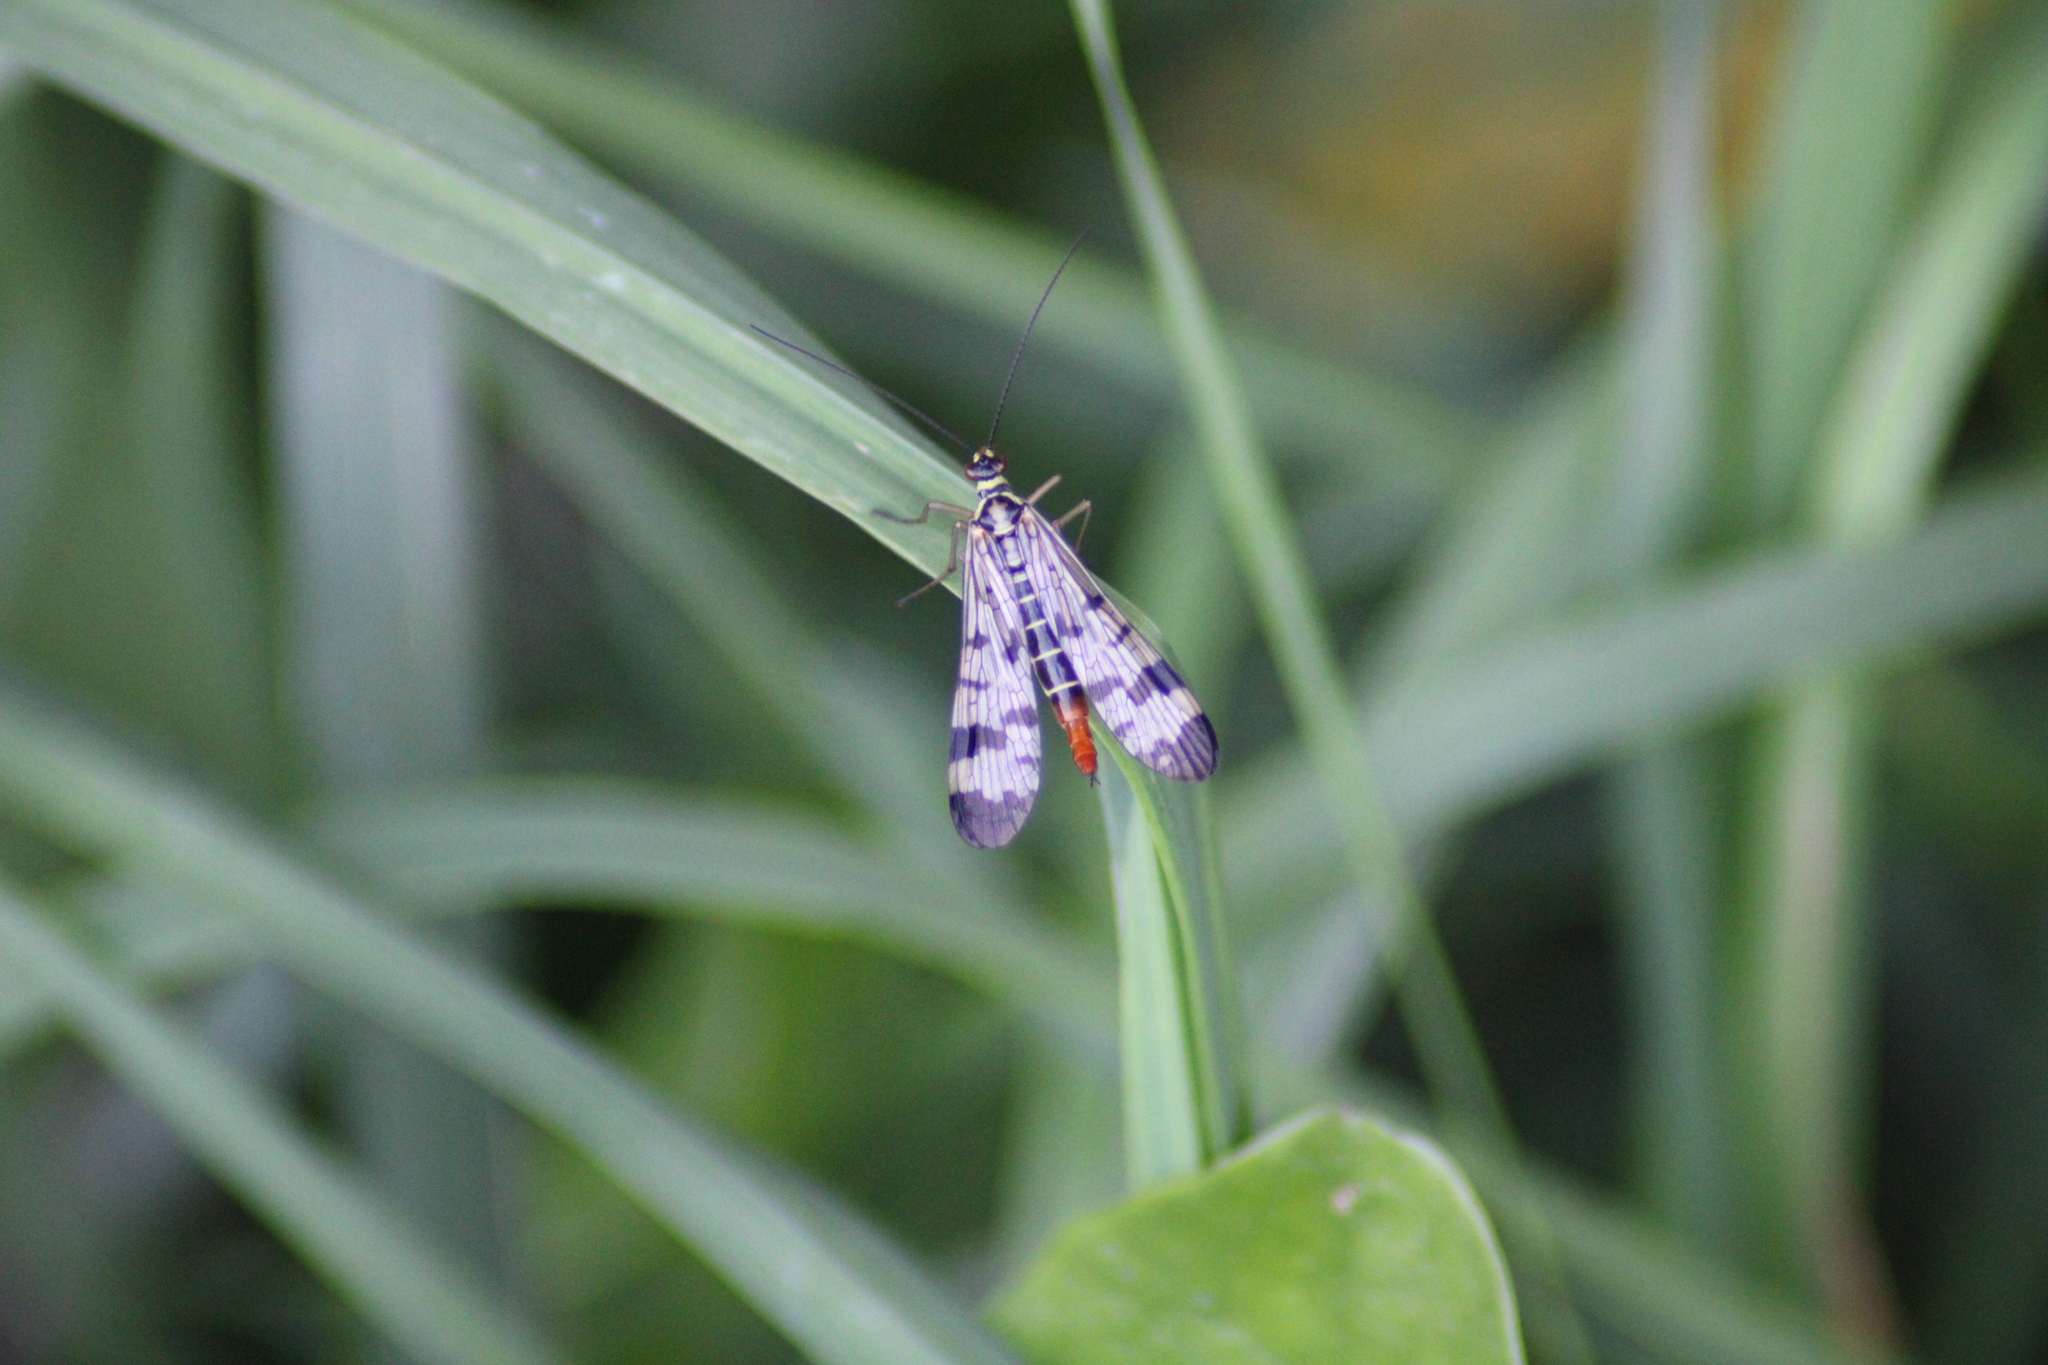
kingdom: Animalia
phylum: Arthropoda
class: Insecta
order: Mecoptera
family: Panorpidae
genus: Panorpa
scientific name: Panorpa communis
